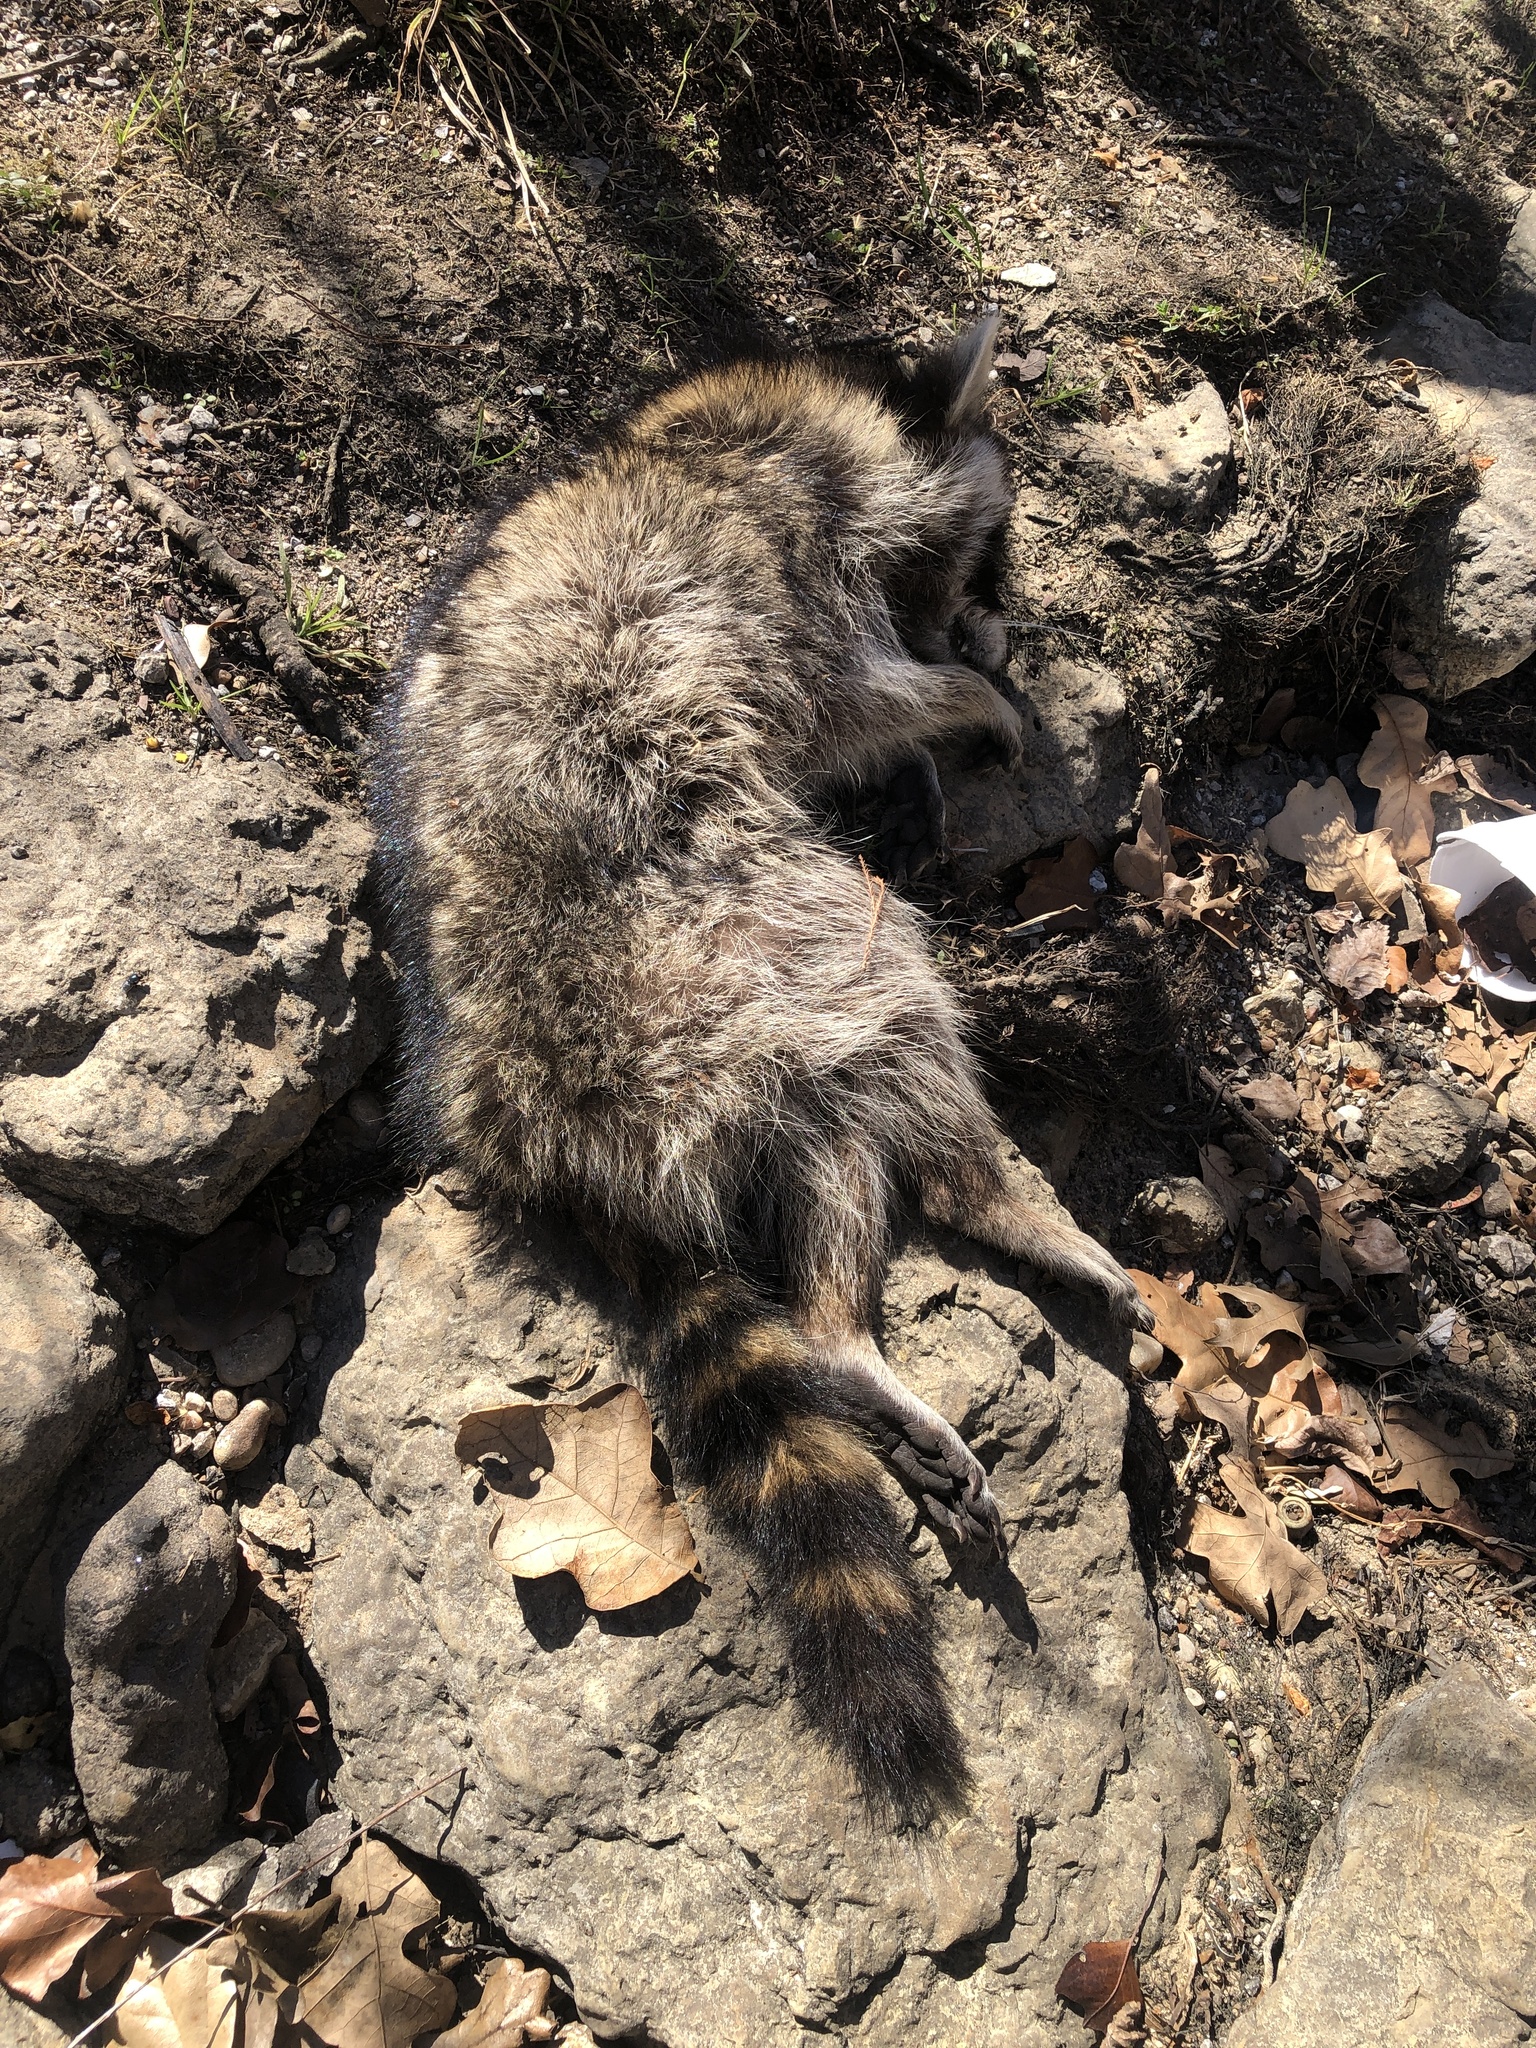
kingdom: Animalia
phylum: Chordata
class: Mammalia
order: Carnivora
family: Procyonidae
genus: Procyon
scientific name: Procyon lotor
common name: Raccoon
